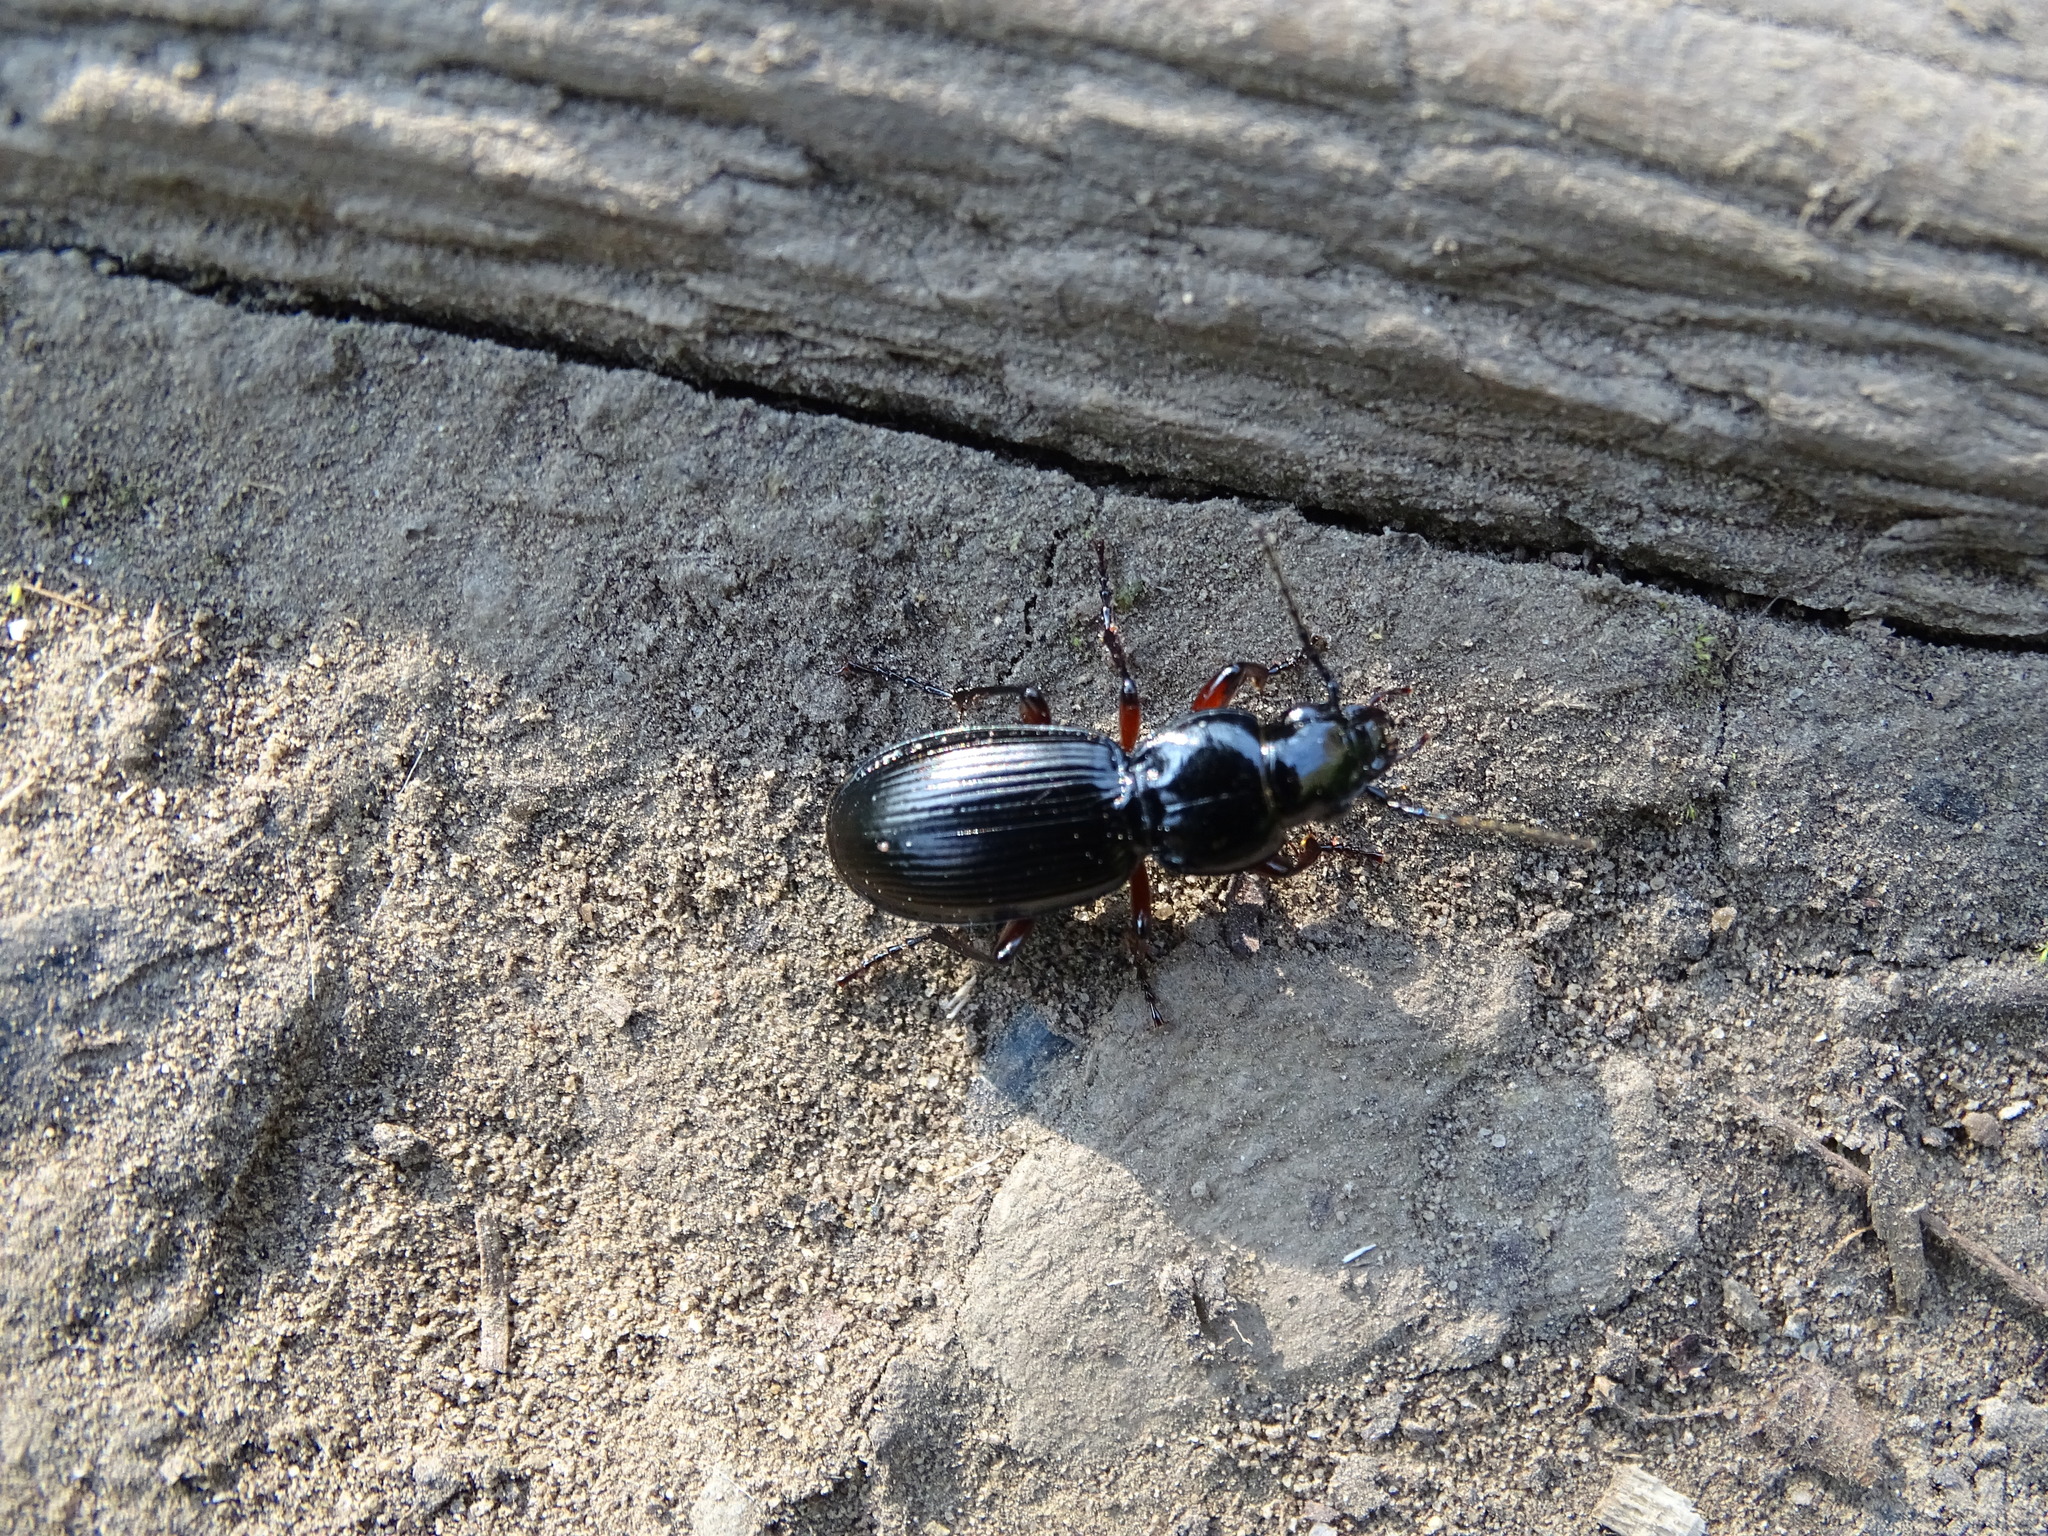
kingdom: Animalia
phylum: Arthropoda
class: Insecta
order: Coleoptera
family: Carabidae
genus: Pterostichus
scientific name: Pterostichus madidus
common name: Black clock
